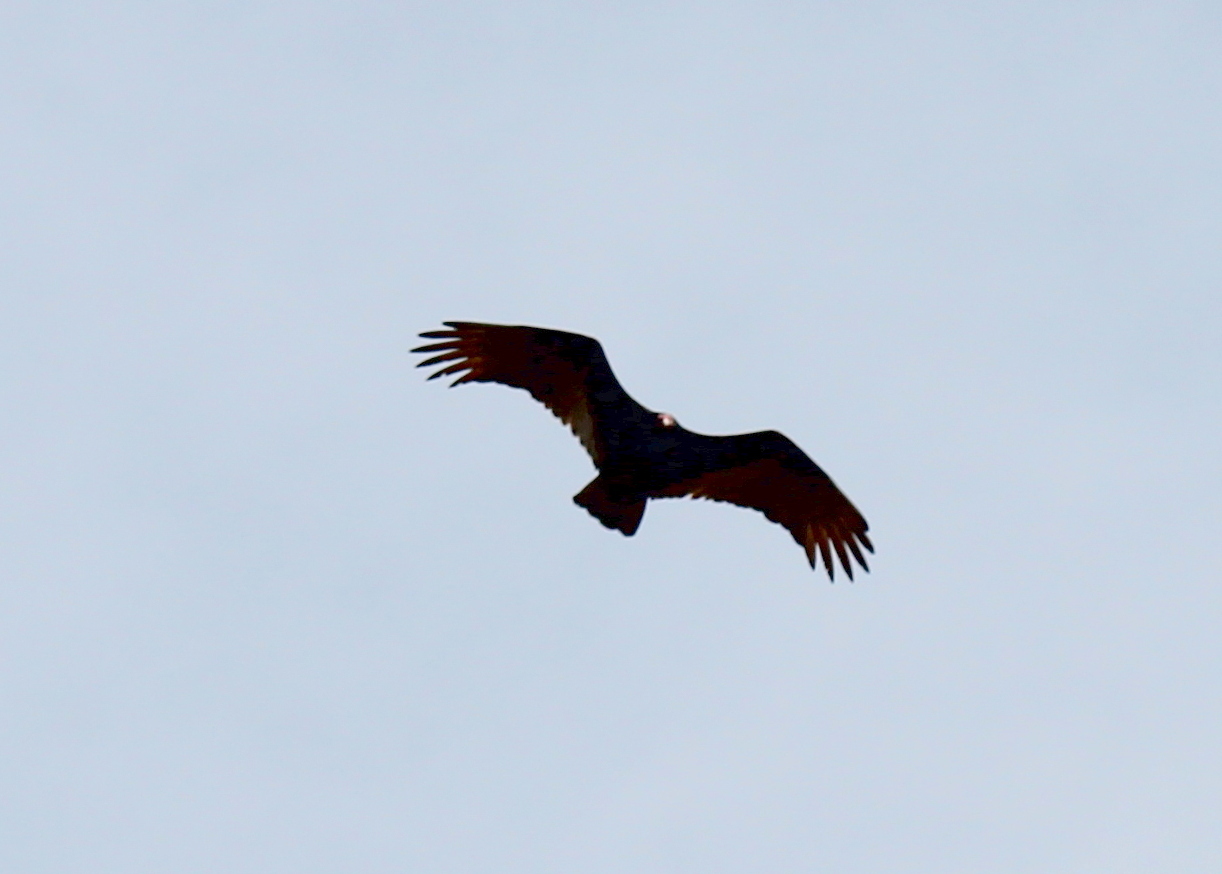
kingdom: Animalia
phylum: Chordata
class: Aves
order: Accipitriformes
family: Cathartidae
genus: Cathartes
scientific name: Cathartes aura
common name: Turkey vulture
